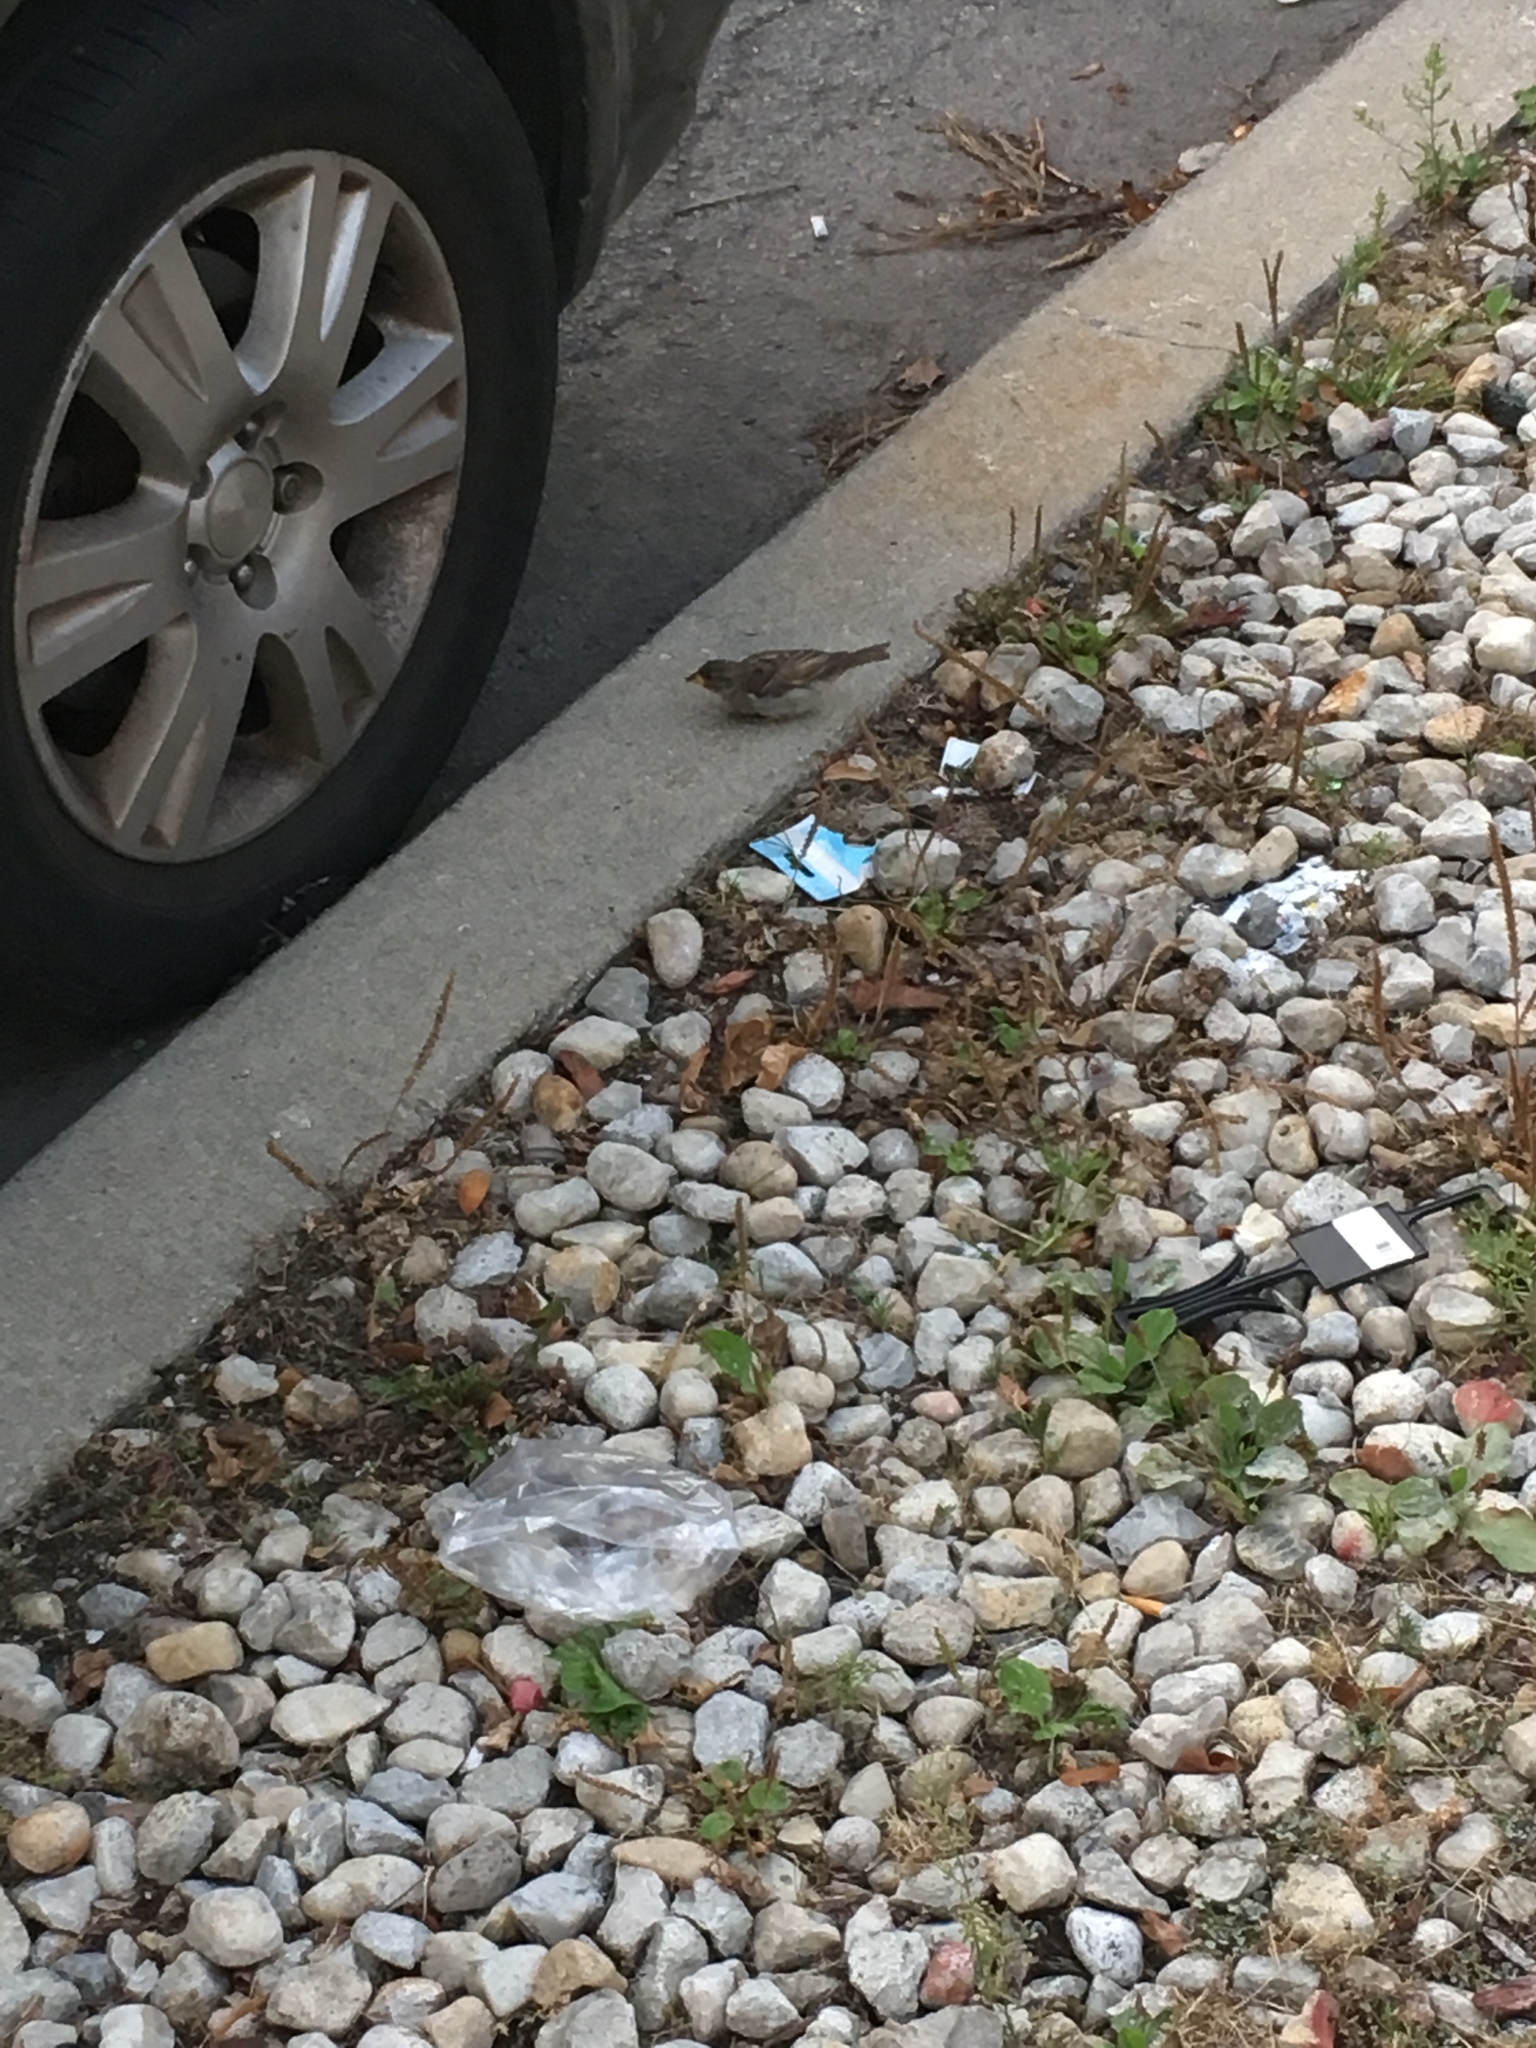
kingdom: Animalia
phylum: Chordata
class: Aves
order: Passeriformes
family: Passeridae
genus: Passer
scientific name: Passer domesticus
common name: House sparrow
